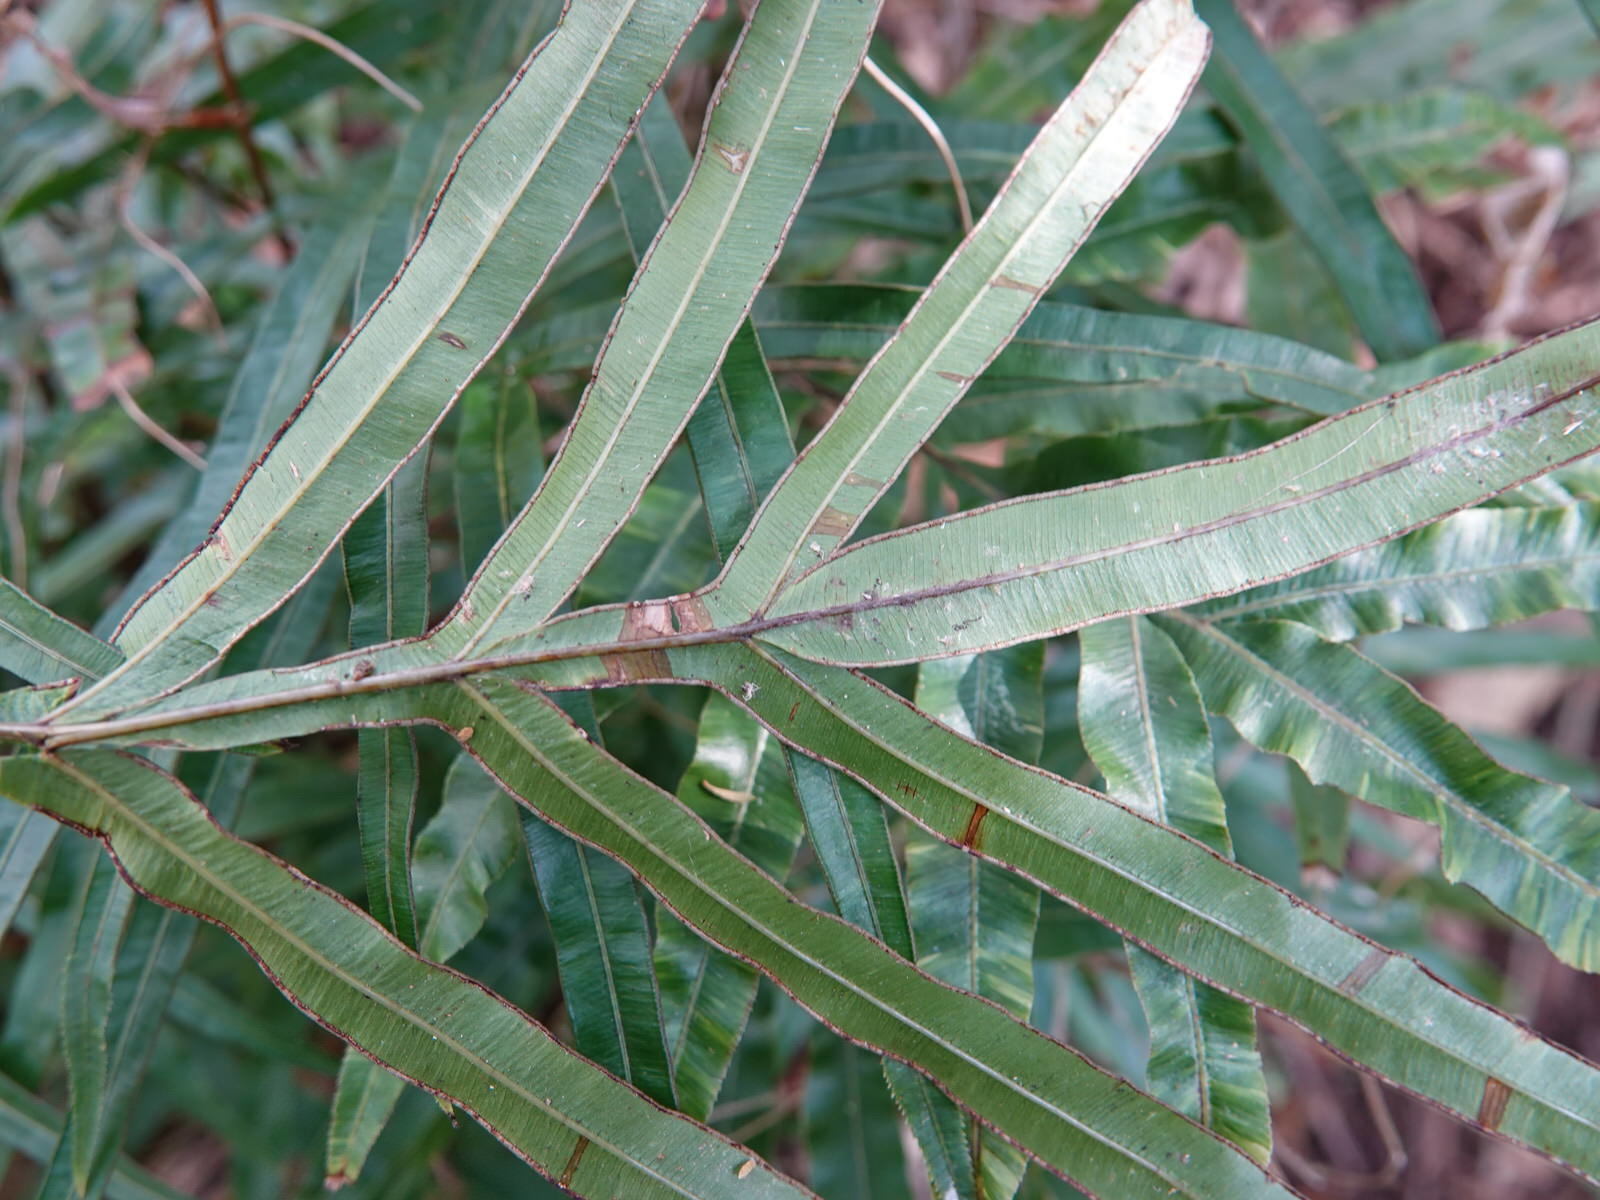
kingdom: Plantae
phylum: Tracheophyta
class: Polypodiopsida
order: Polypodiales
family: Pteridaceae
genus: Pteris
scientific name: Pteris cretica
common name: Ribbon fern
